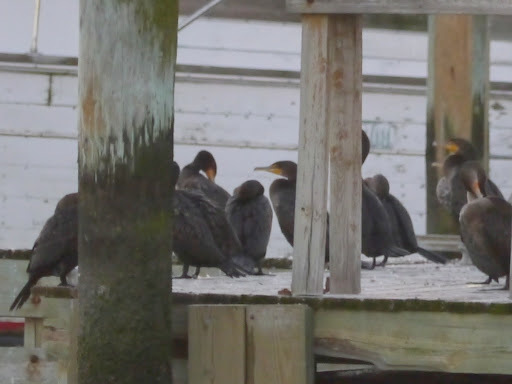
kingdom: Animalia
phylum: Chordata
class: Aves
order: Suliformes
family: Phalacrocoracidae
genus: Phalacrocorax
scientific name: Phalacrocorax auritus
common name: Double-crested cormorant
